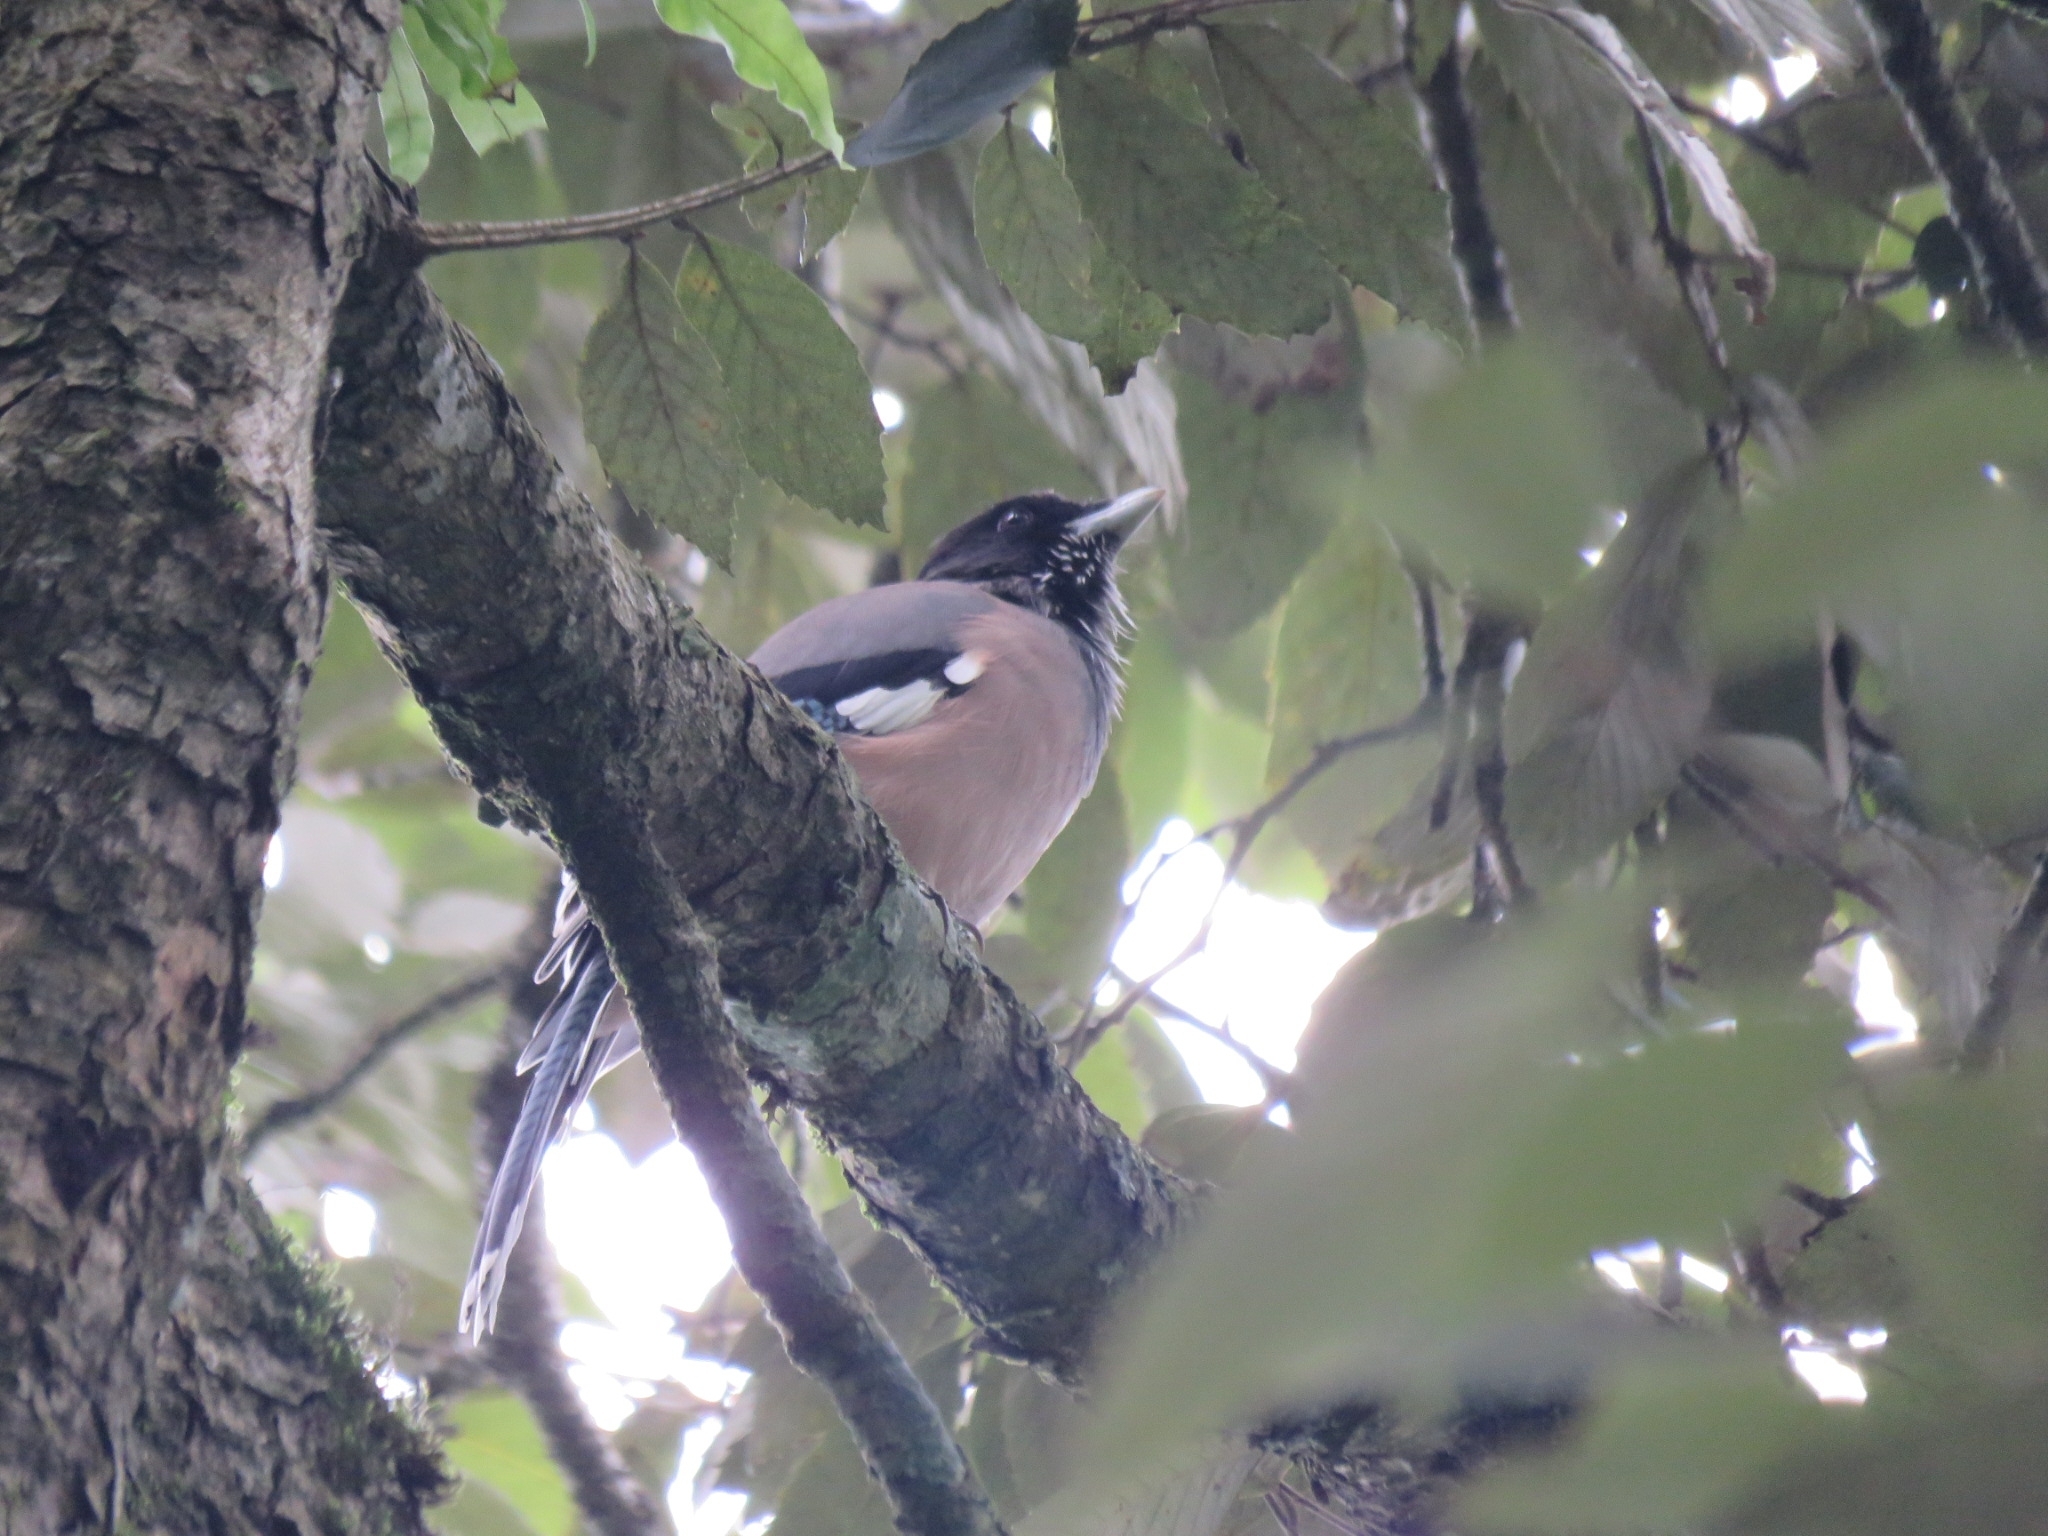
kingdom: Animalia
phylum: Chordata
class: Aves
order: Passeriformes
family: Corvidae
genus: Garrulus
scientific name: Garrulus lanceolatus
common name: Black-headed jay
